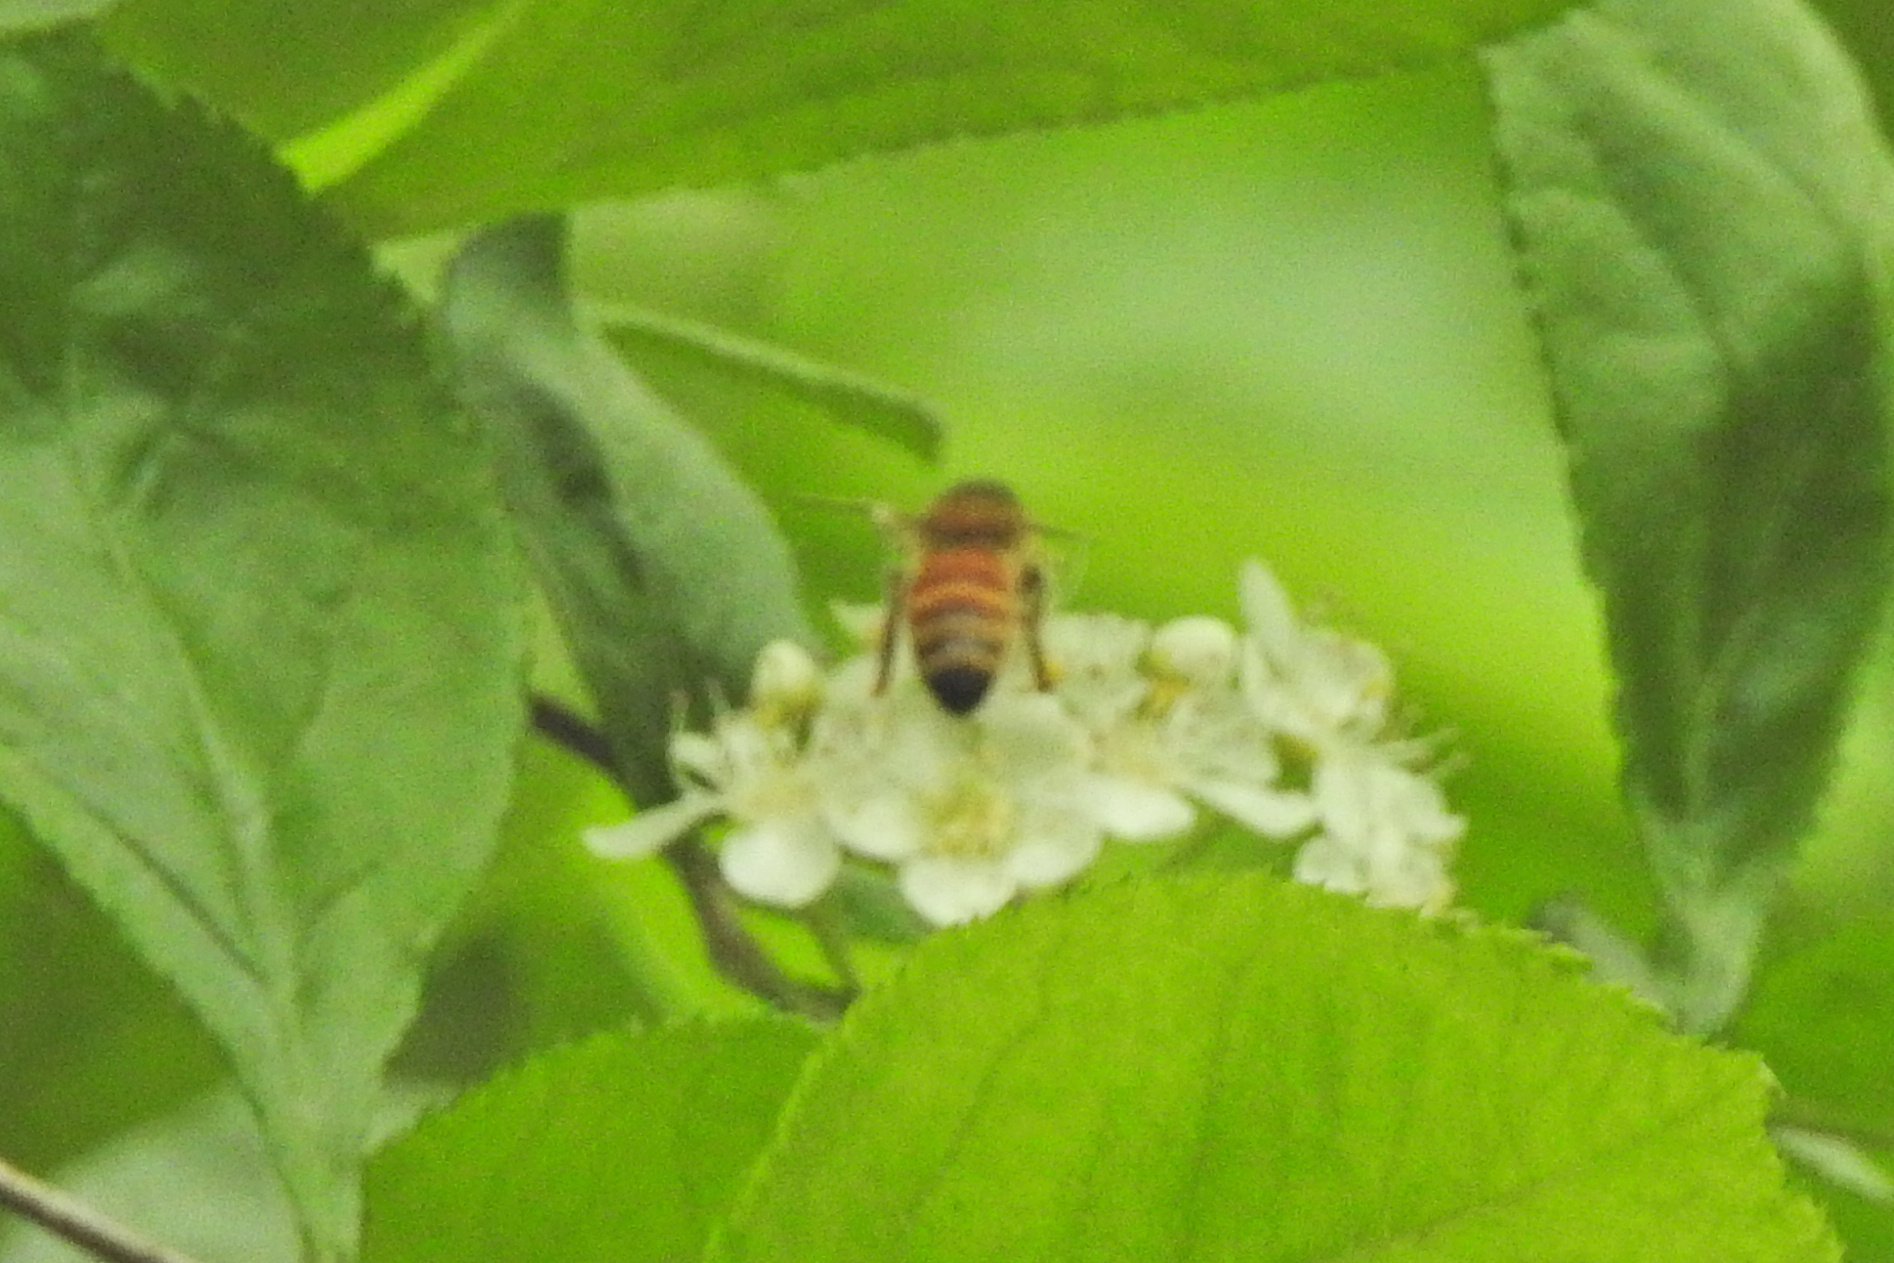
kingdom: Animalia
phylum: Arthropoda
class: Insecta
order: Hymenoptera
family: Apidae
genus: Apis
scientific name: Apis mellifera
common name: Honey bee
